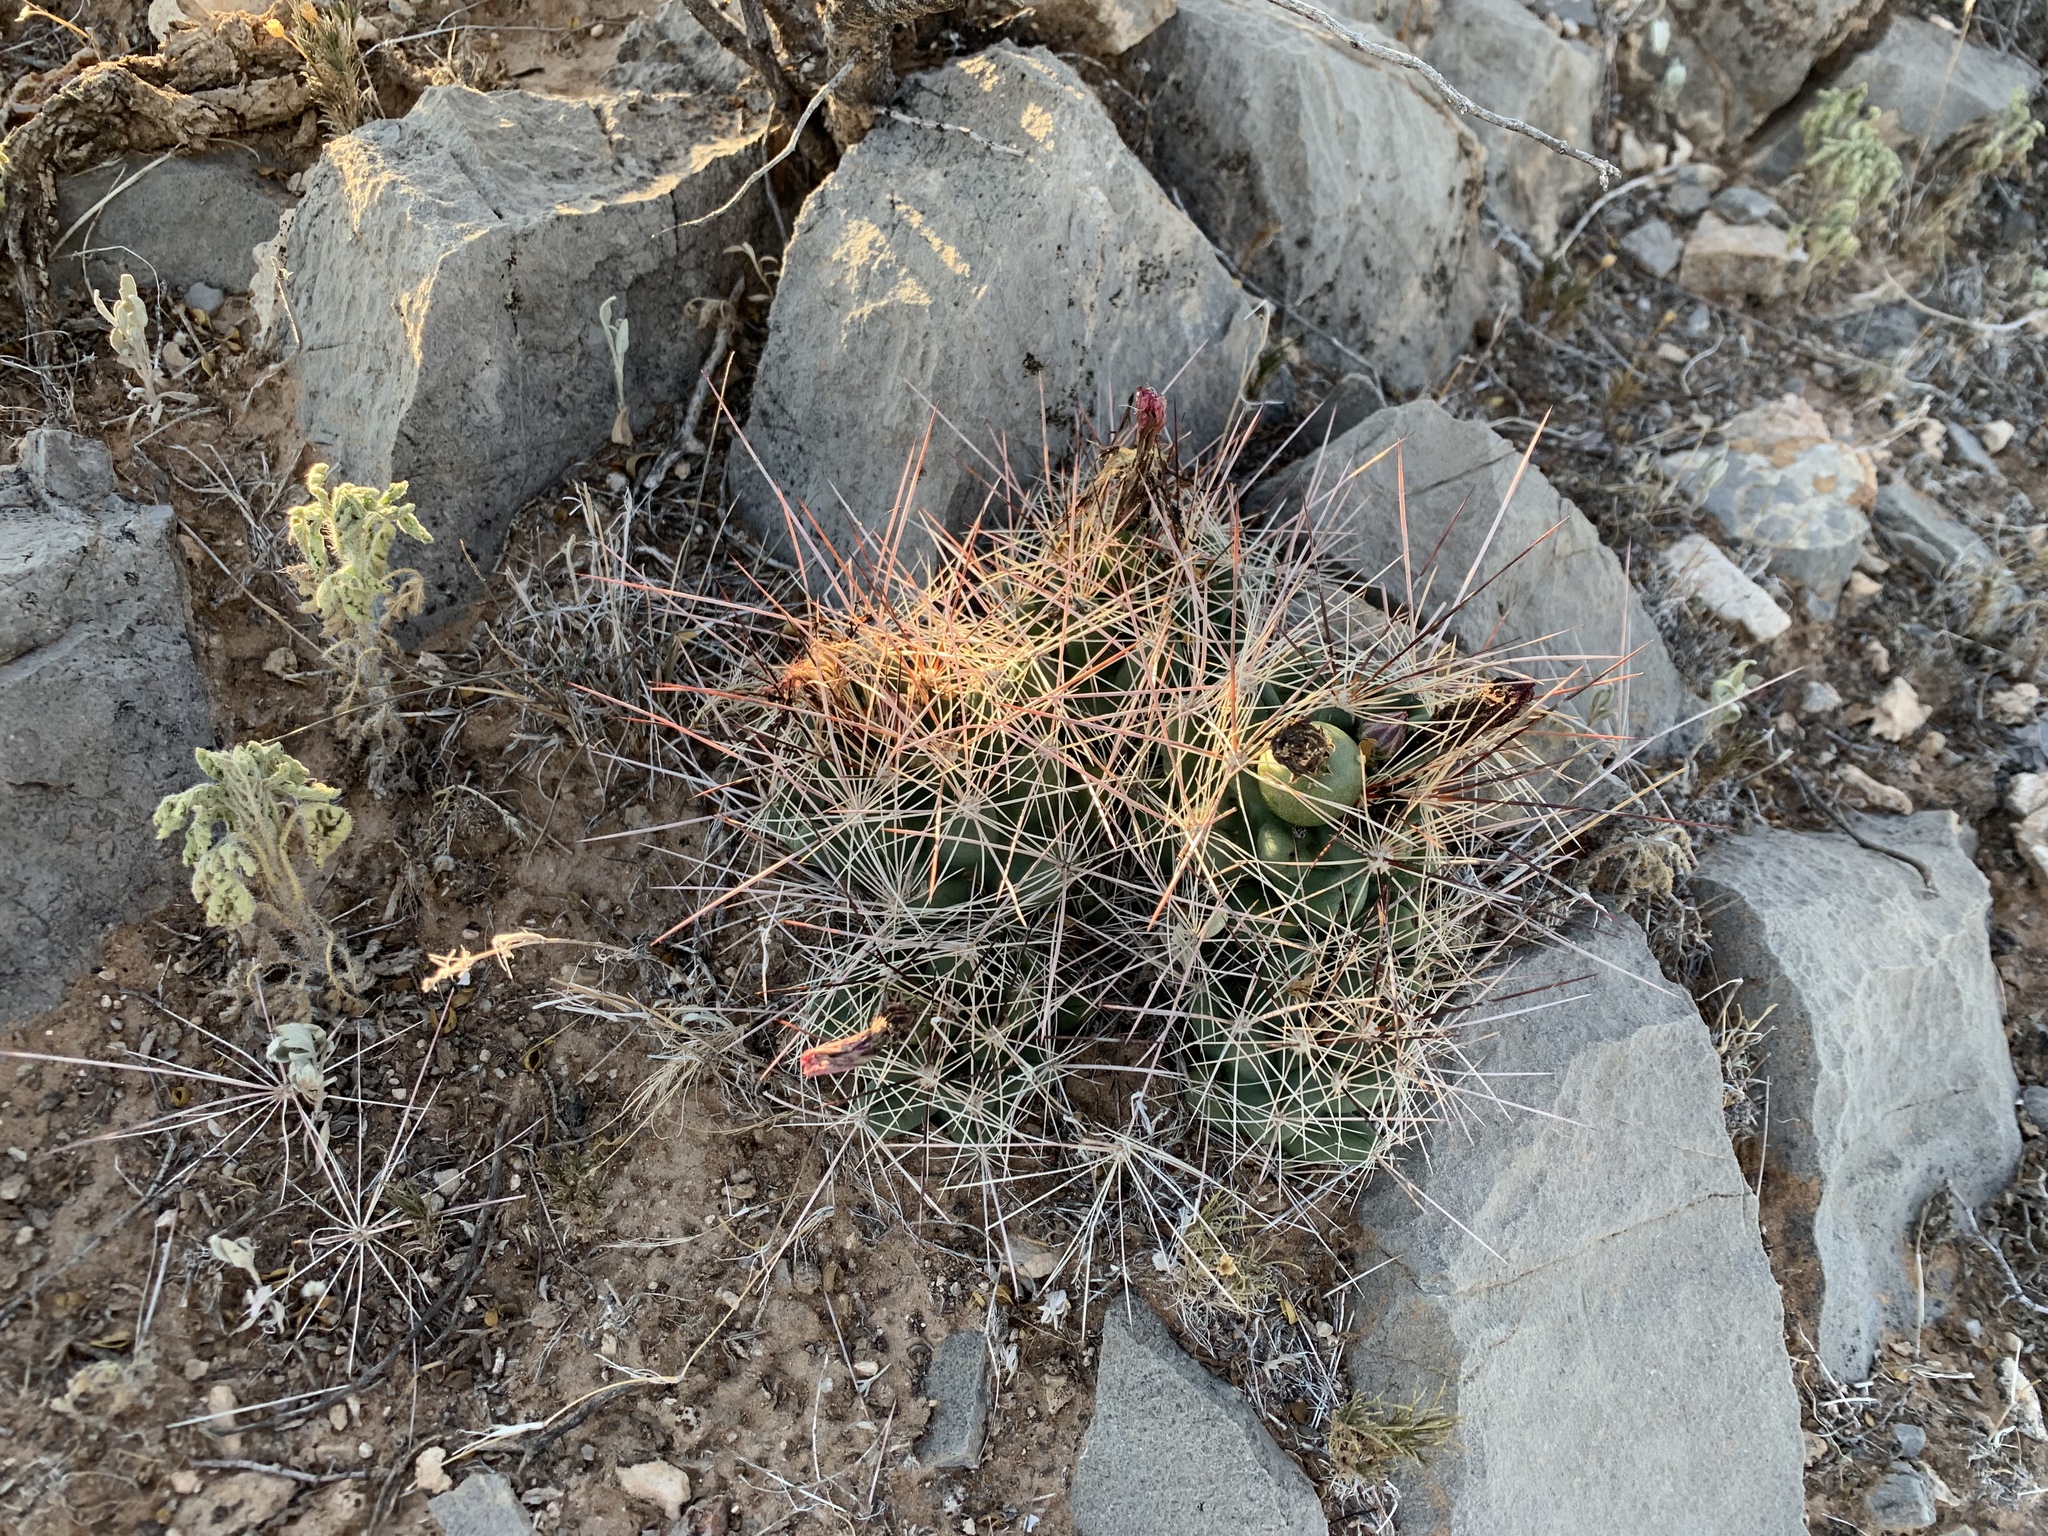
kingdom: Plantae
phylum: Tracheophyta
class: Magnoliopsida
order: Caryophyllales
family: Cactaceae
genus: Coryphantha
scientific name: Coryphantha macromeris
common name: Nipple beehive cactus
